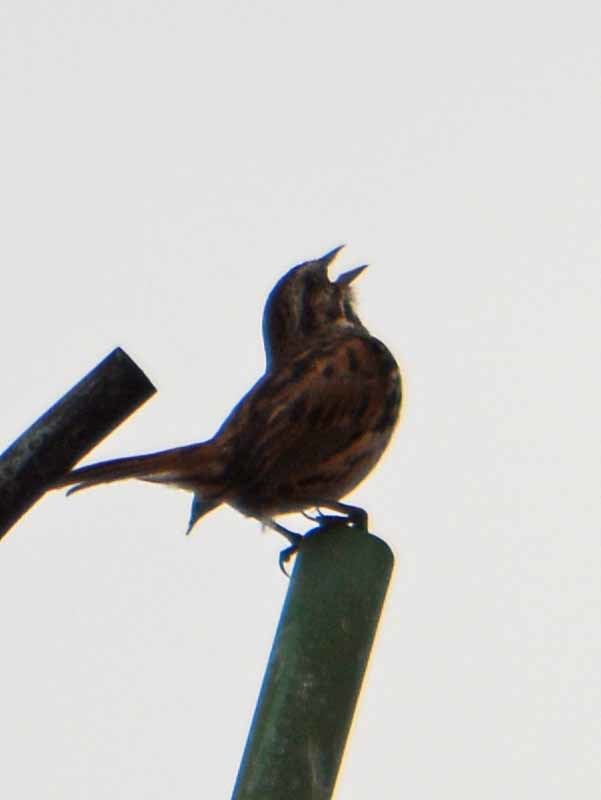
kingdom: Animalia
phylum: Chordata
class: Aves
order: Passeriformes
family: Passerellidae
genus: Melospiza
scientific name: Melospiza melodia
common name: Song sparrow
